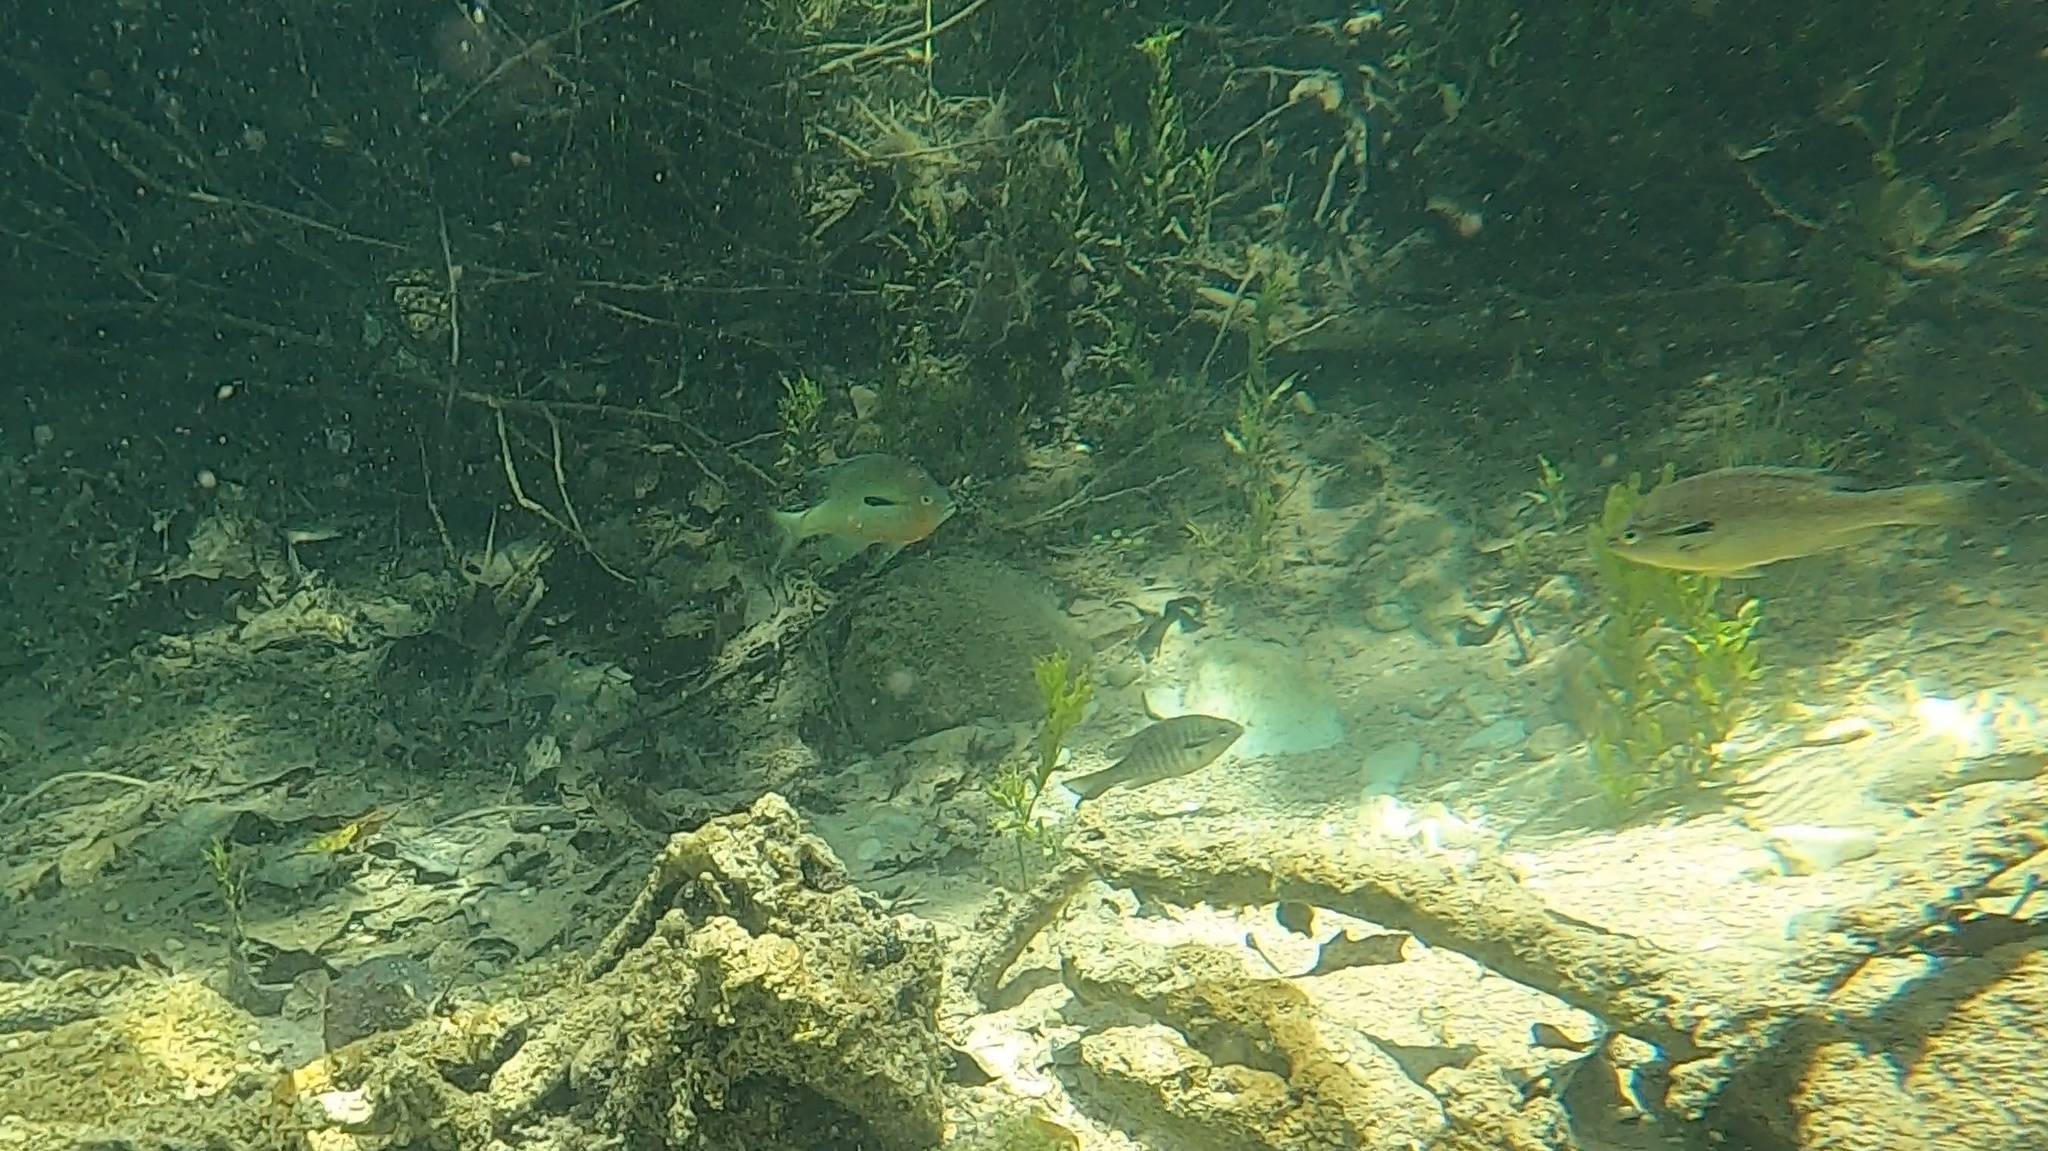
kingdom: Animalia
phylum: Chordata
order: Perciformes
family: Centrarchidae
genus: Lepomis
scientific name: Lepomis auritus
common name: Redbreast sunfish
